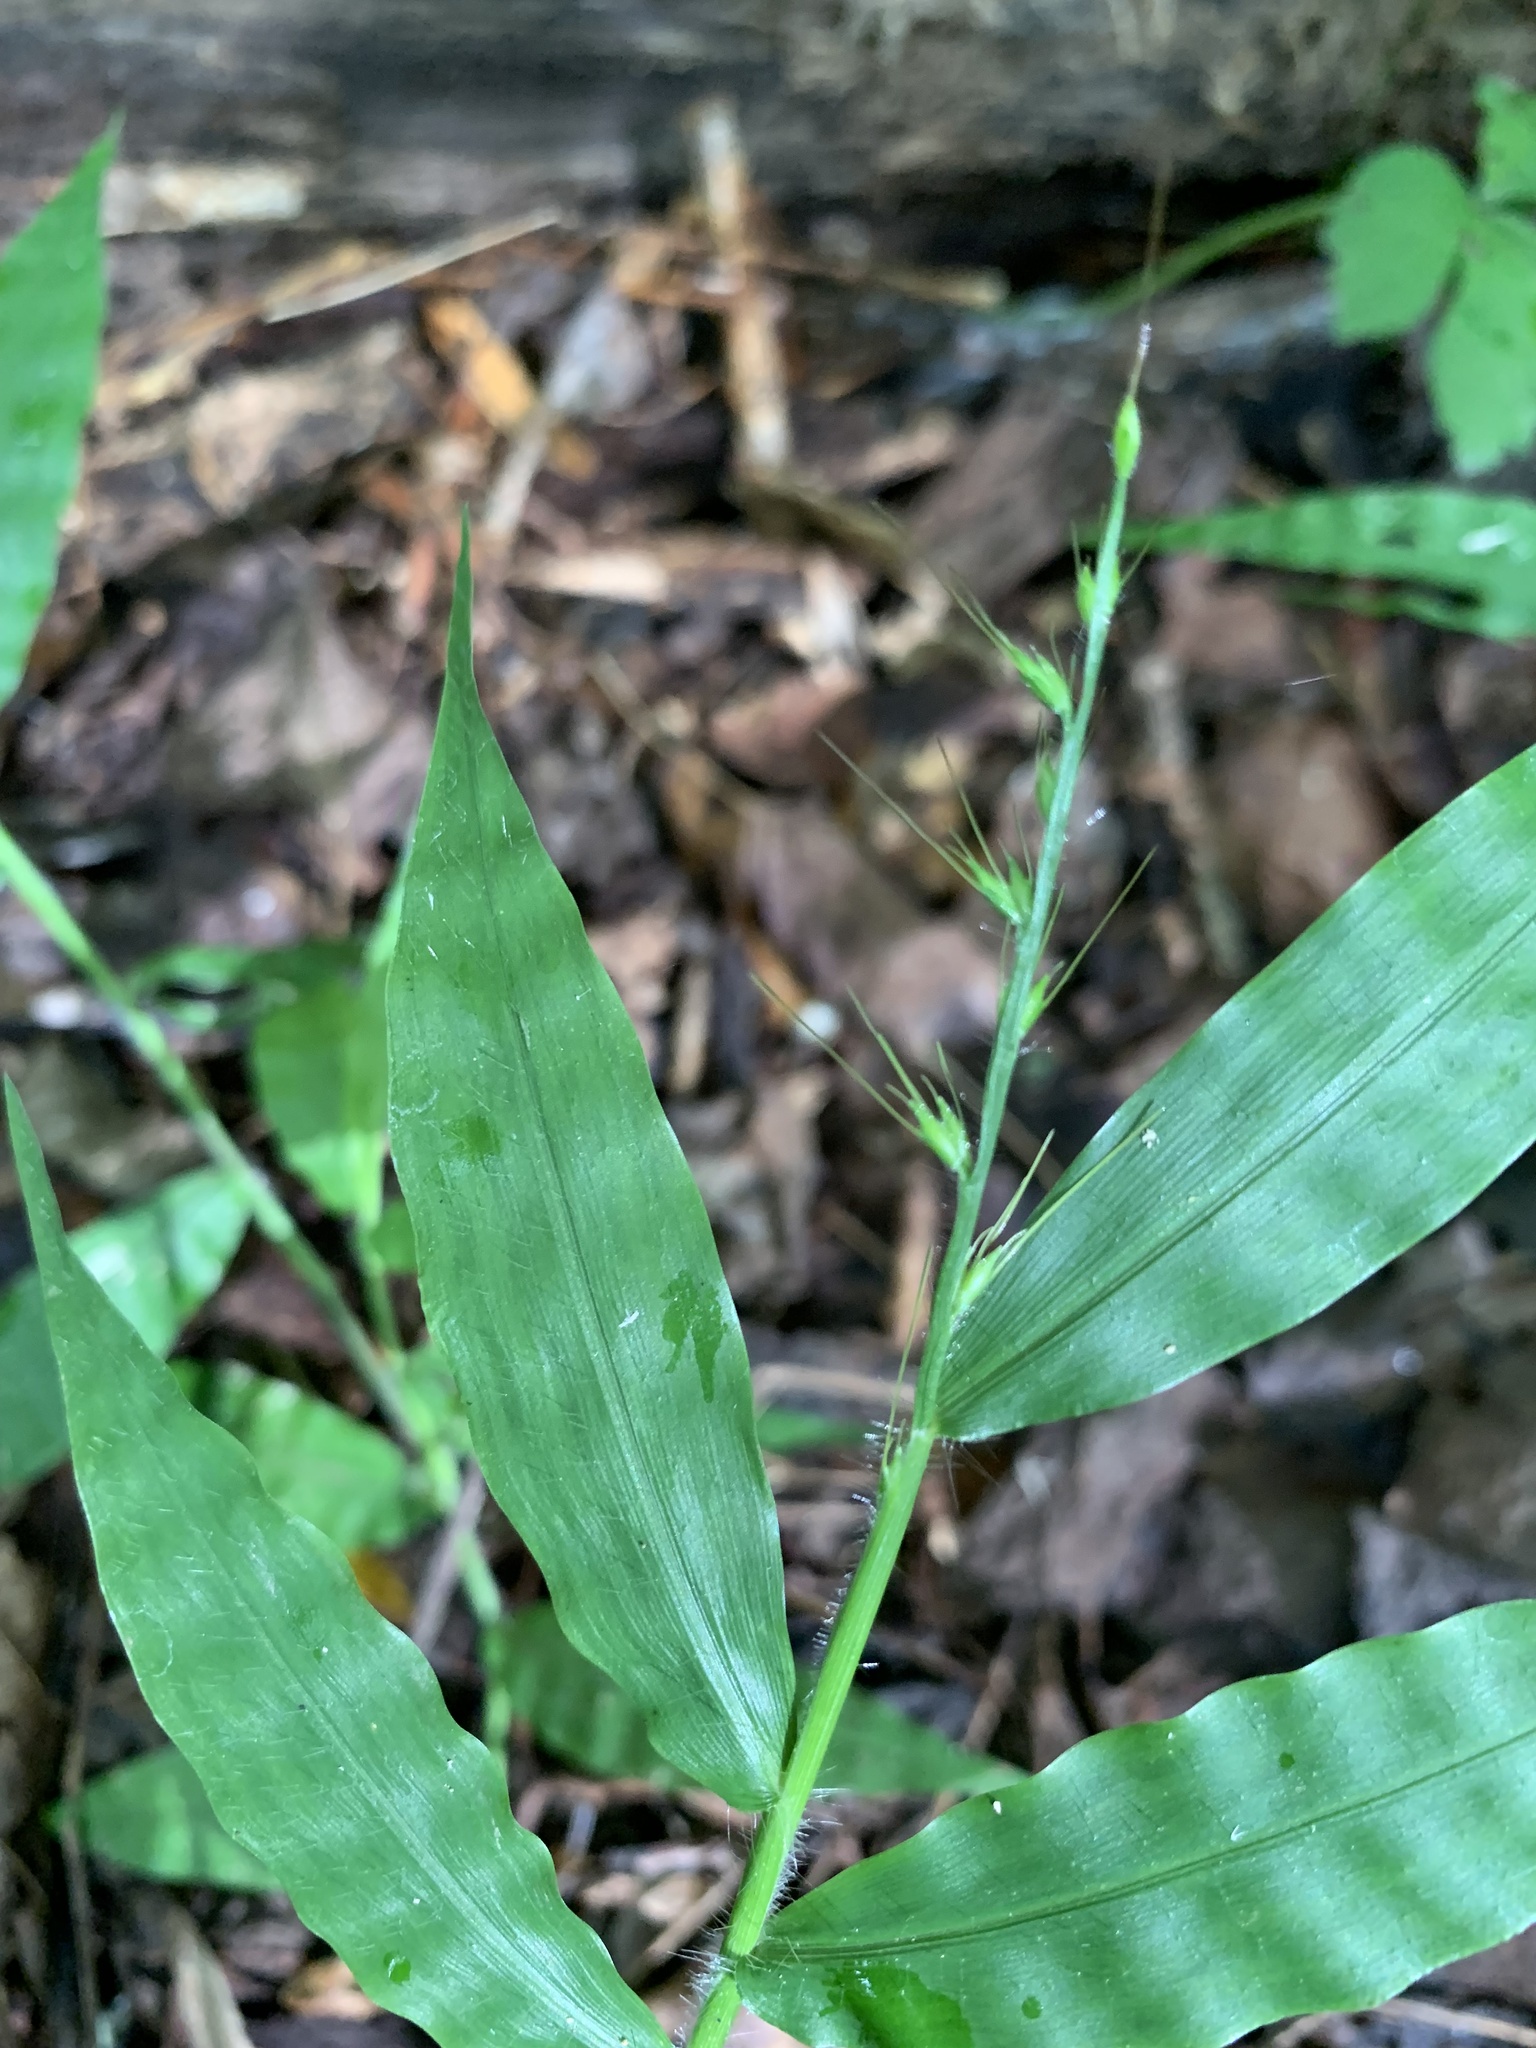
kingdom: Plantae
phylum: Tracheophyta
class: Liliopsida
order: Poales
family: Poaceae
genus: Oplismenus
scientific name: Oplismenus undulatifolius
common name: Wavyleaf basketgrass
